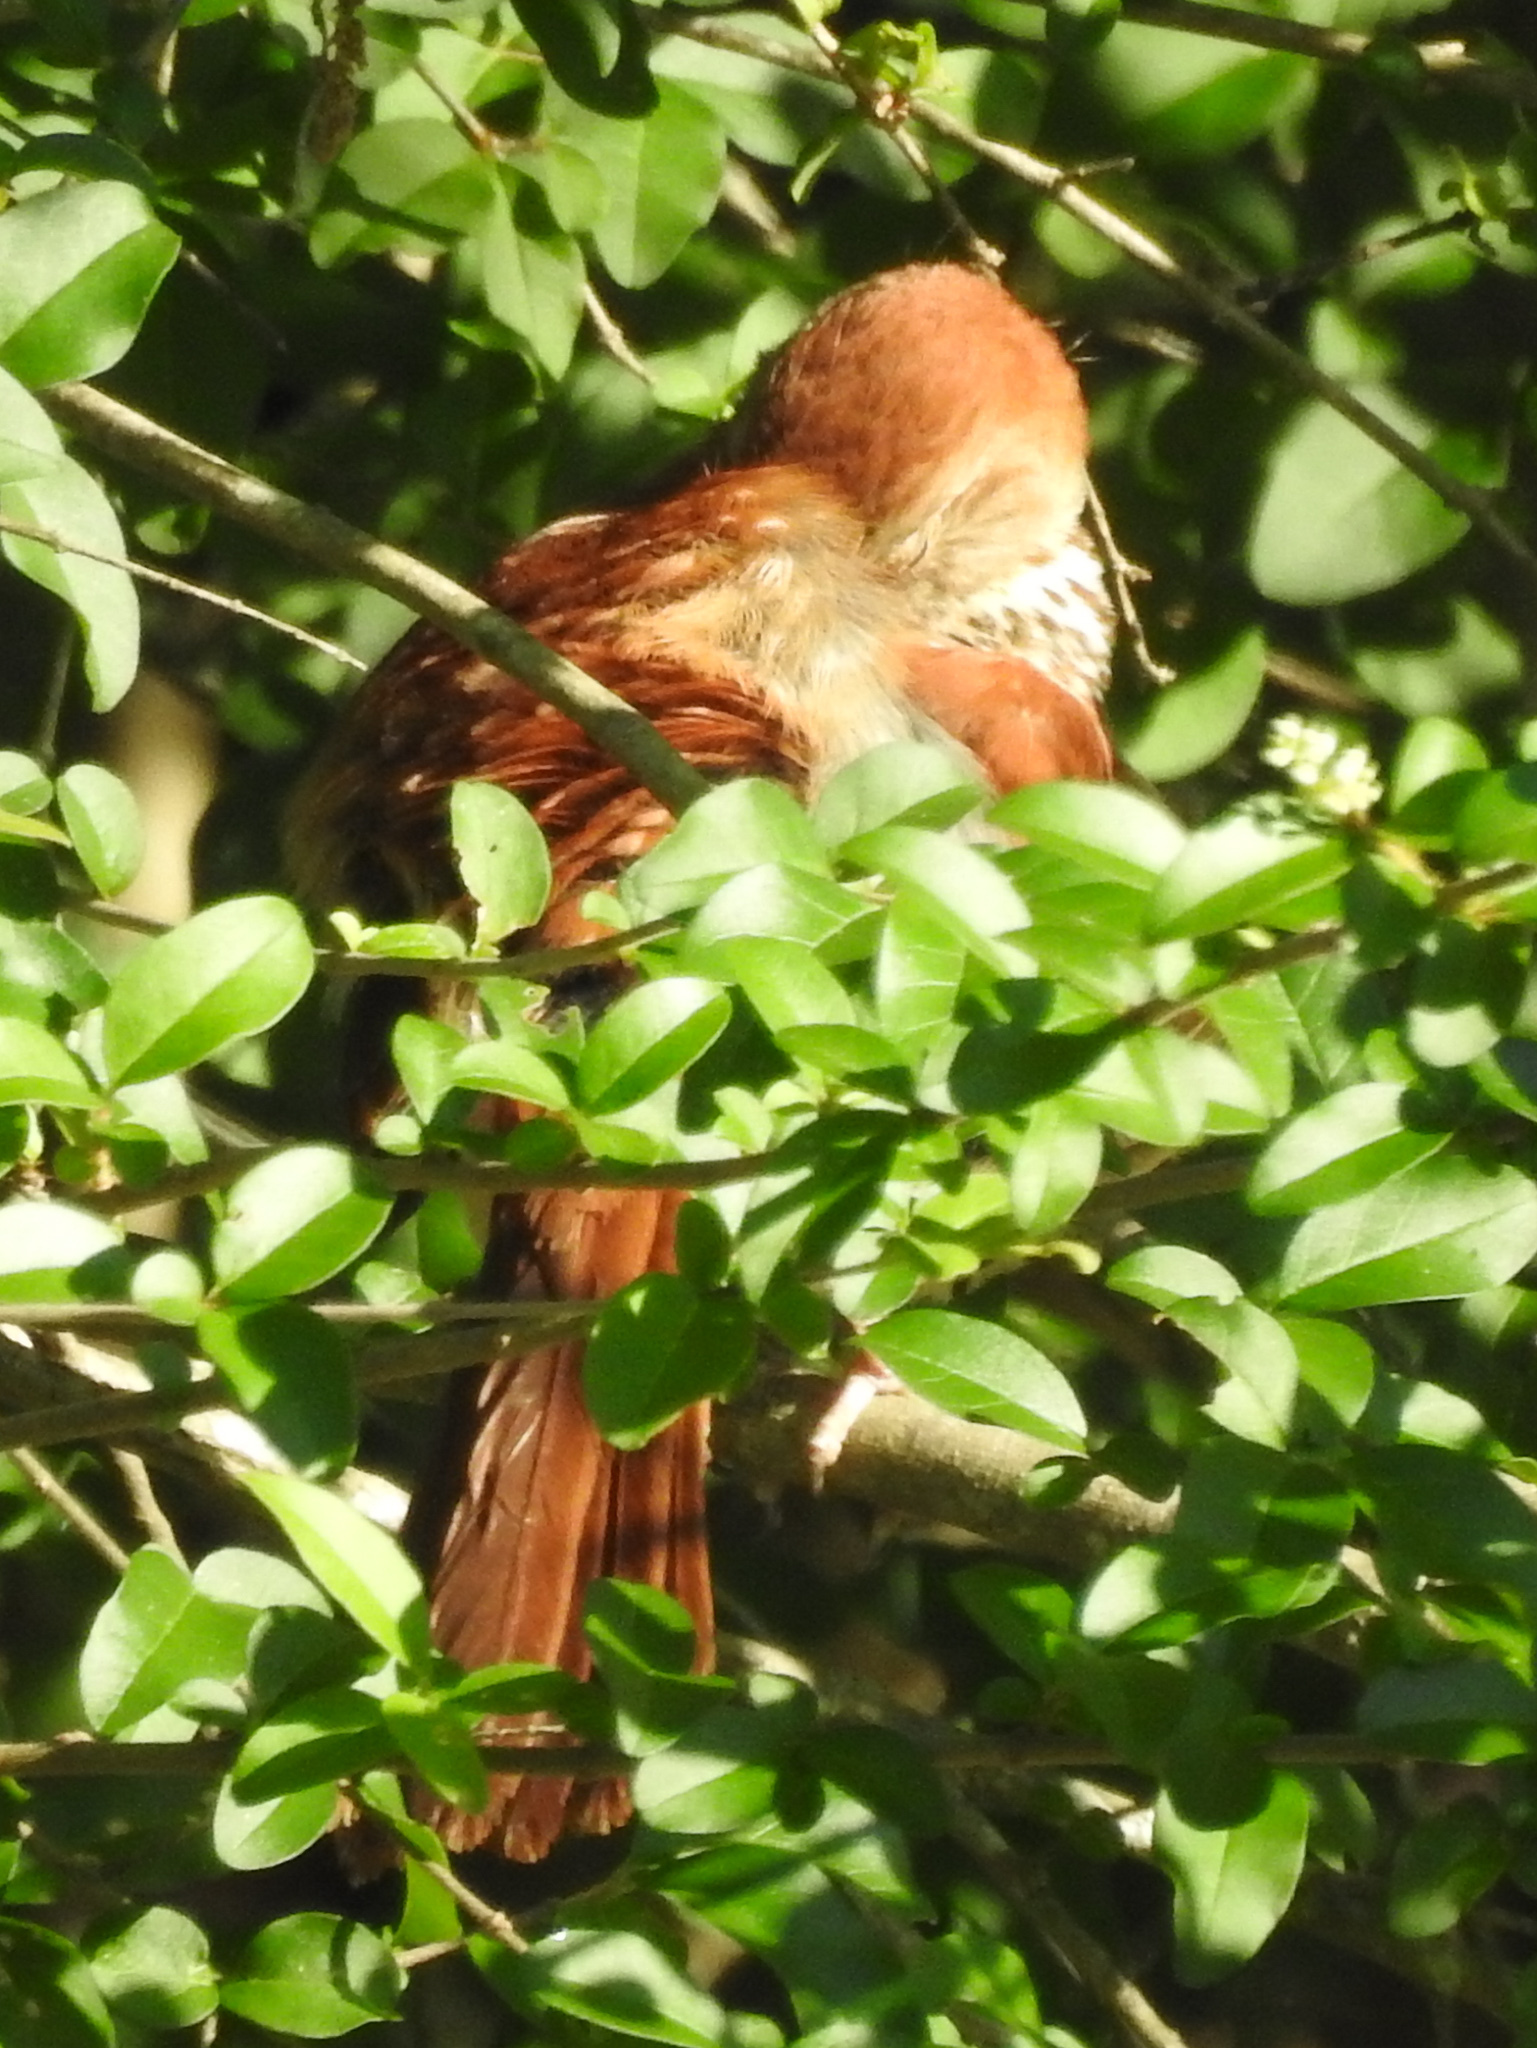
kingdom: Animalia
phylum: Chordata
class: Aves
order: Passeriformes
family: Mimidae
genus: Toxostoma
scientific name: Toxostoma rufum
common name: Brown thrasher
